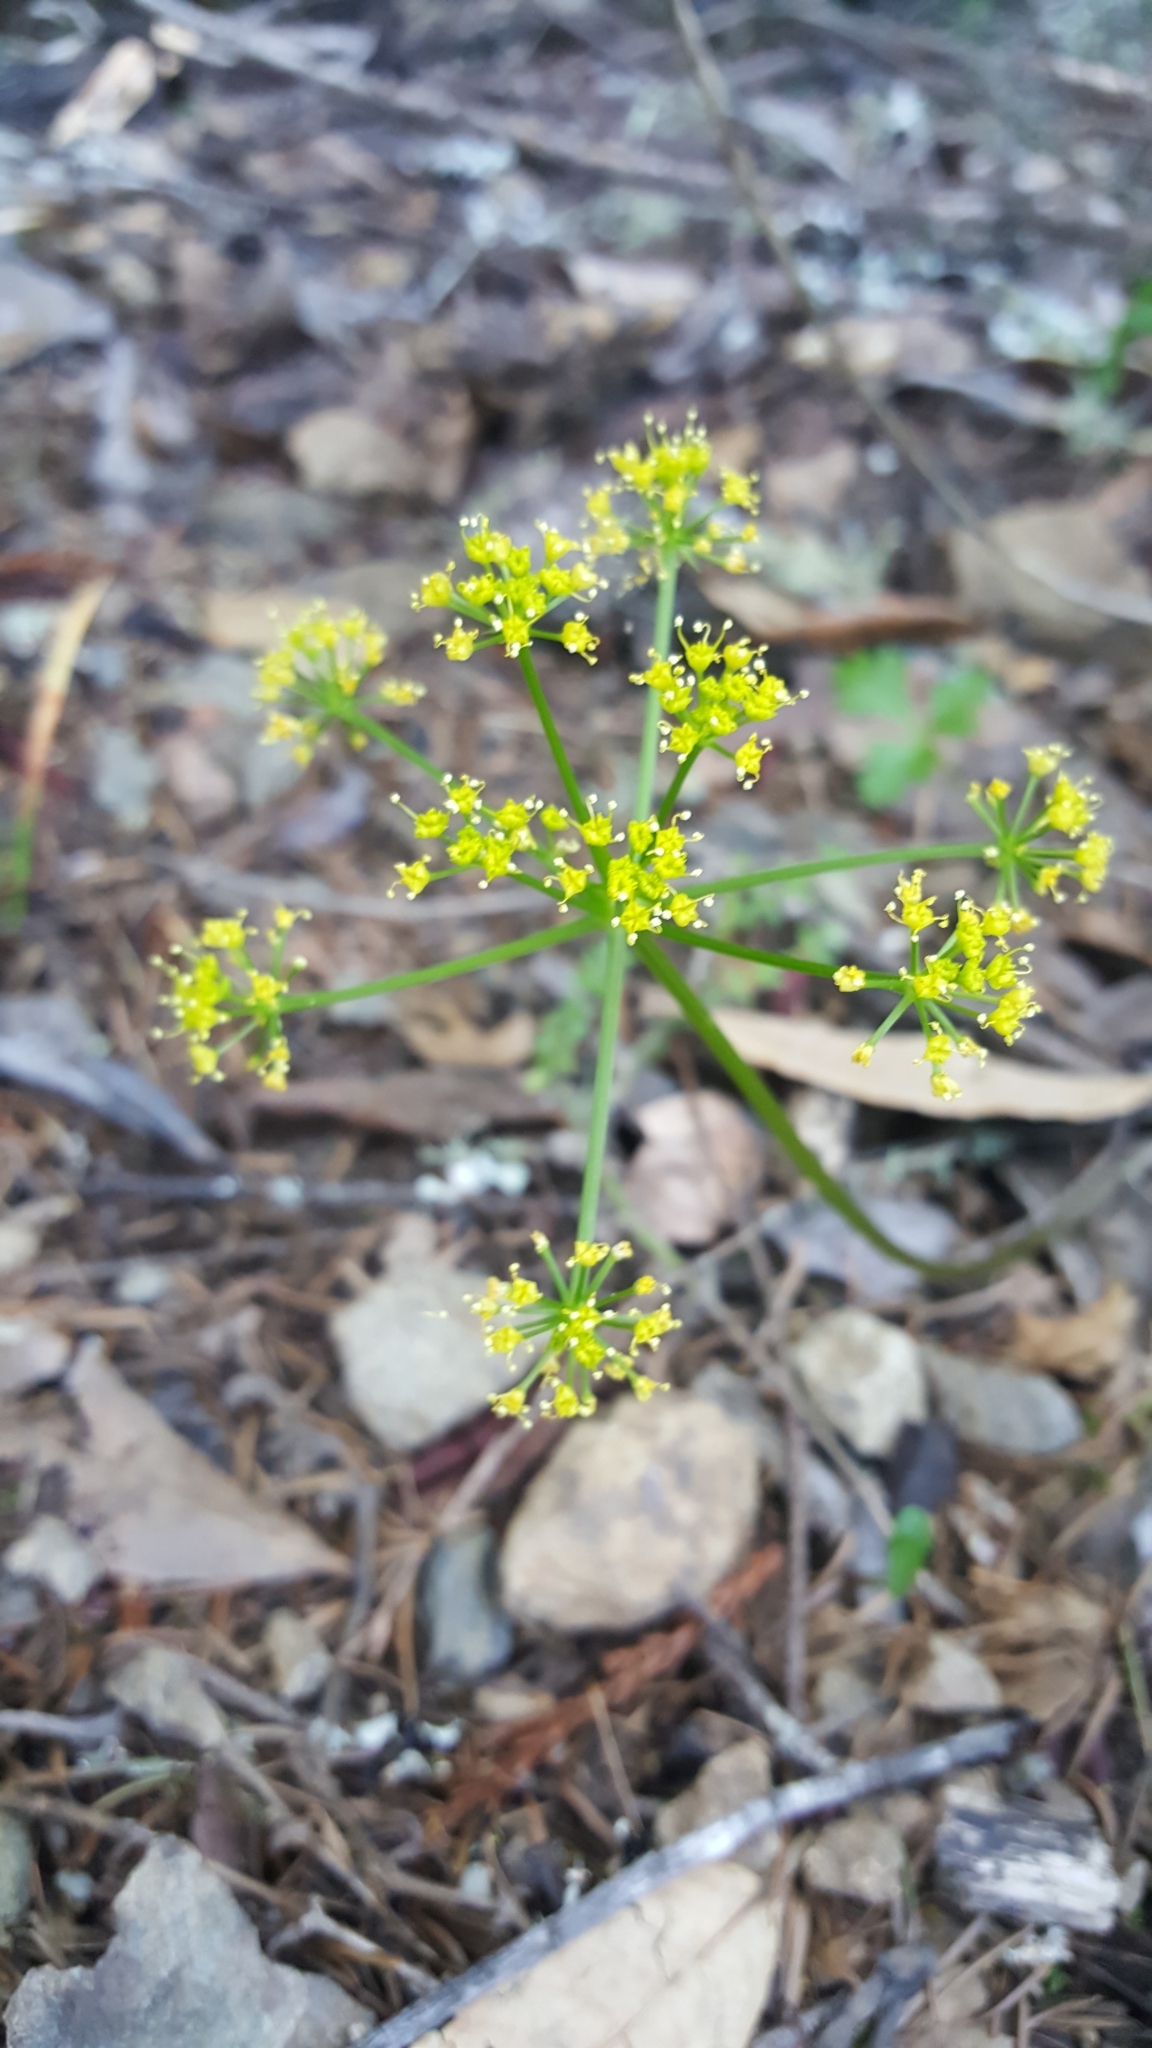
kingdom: Plantae
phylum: Tracheophyta
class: Magnoliopsida
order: Apiales
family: Apiaceae
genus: Tauschia
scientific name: Tauschia kelloggii
